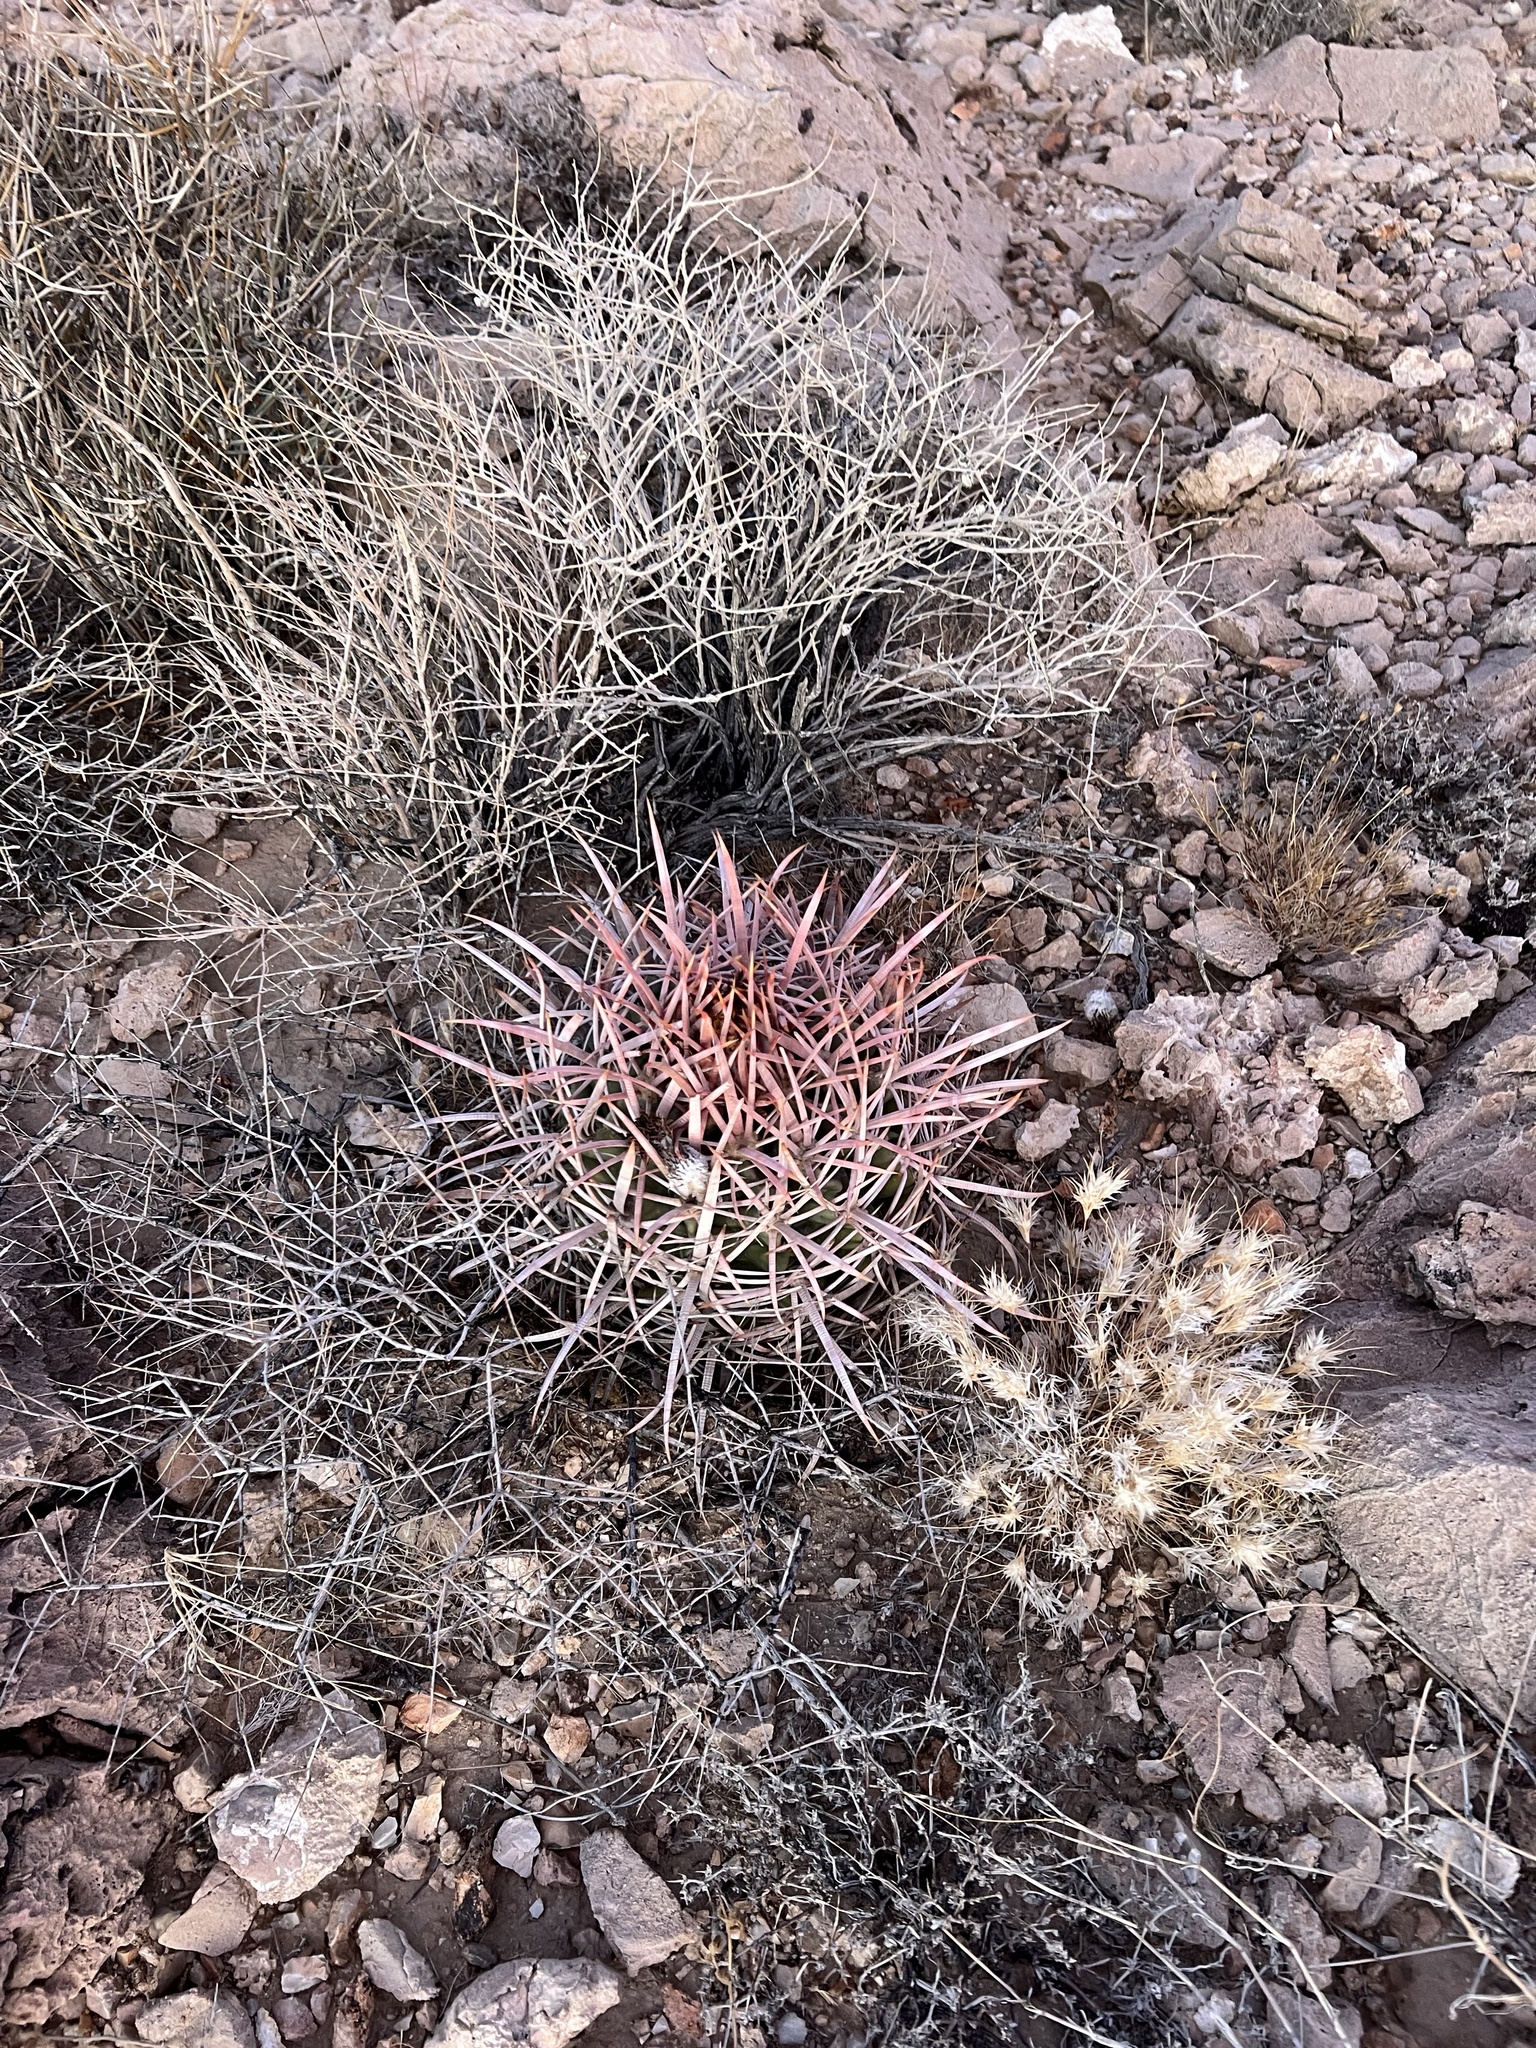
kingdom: Plantae
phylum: Tracheophyta
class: Magnoliopsida
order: Caryophyllales
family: Cactaceae
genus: Echinocactus
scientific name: Echinocactus polycephalus
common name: Cottontop cactus
